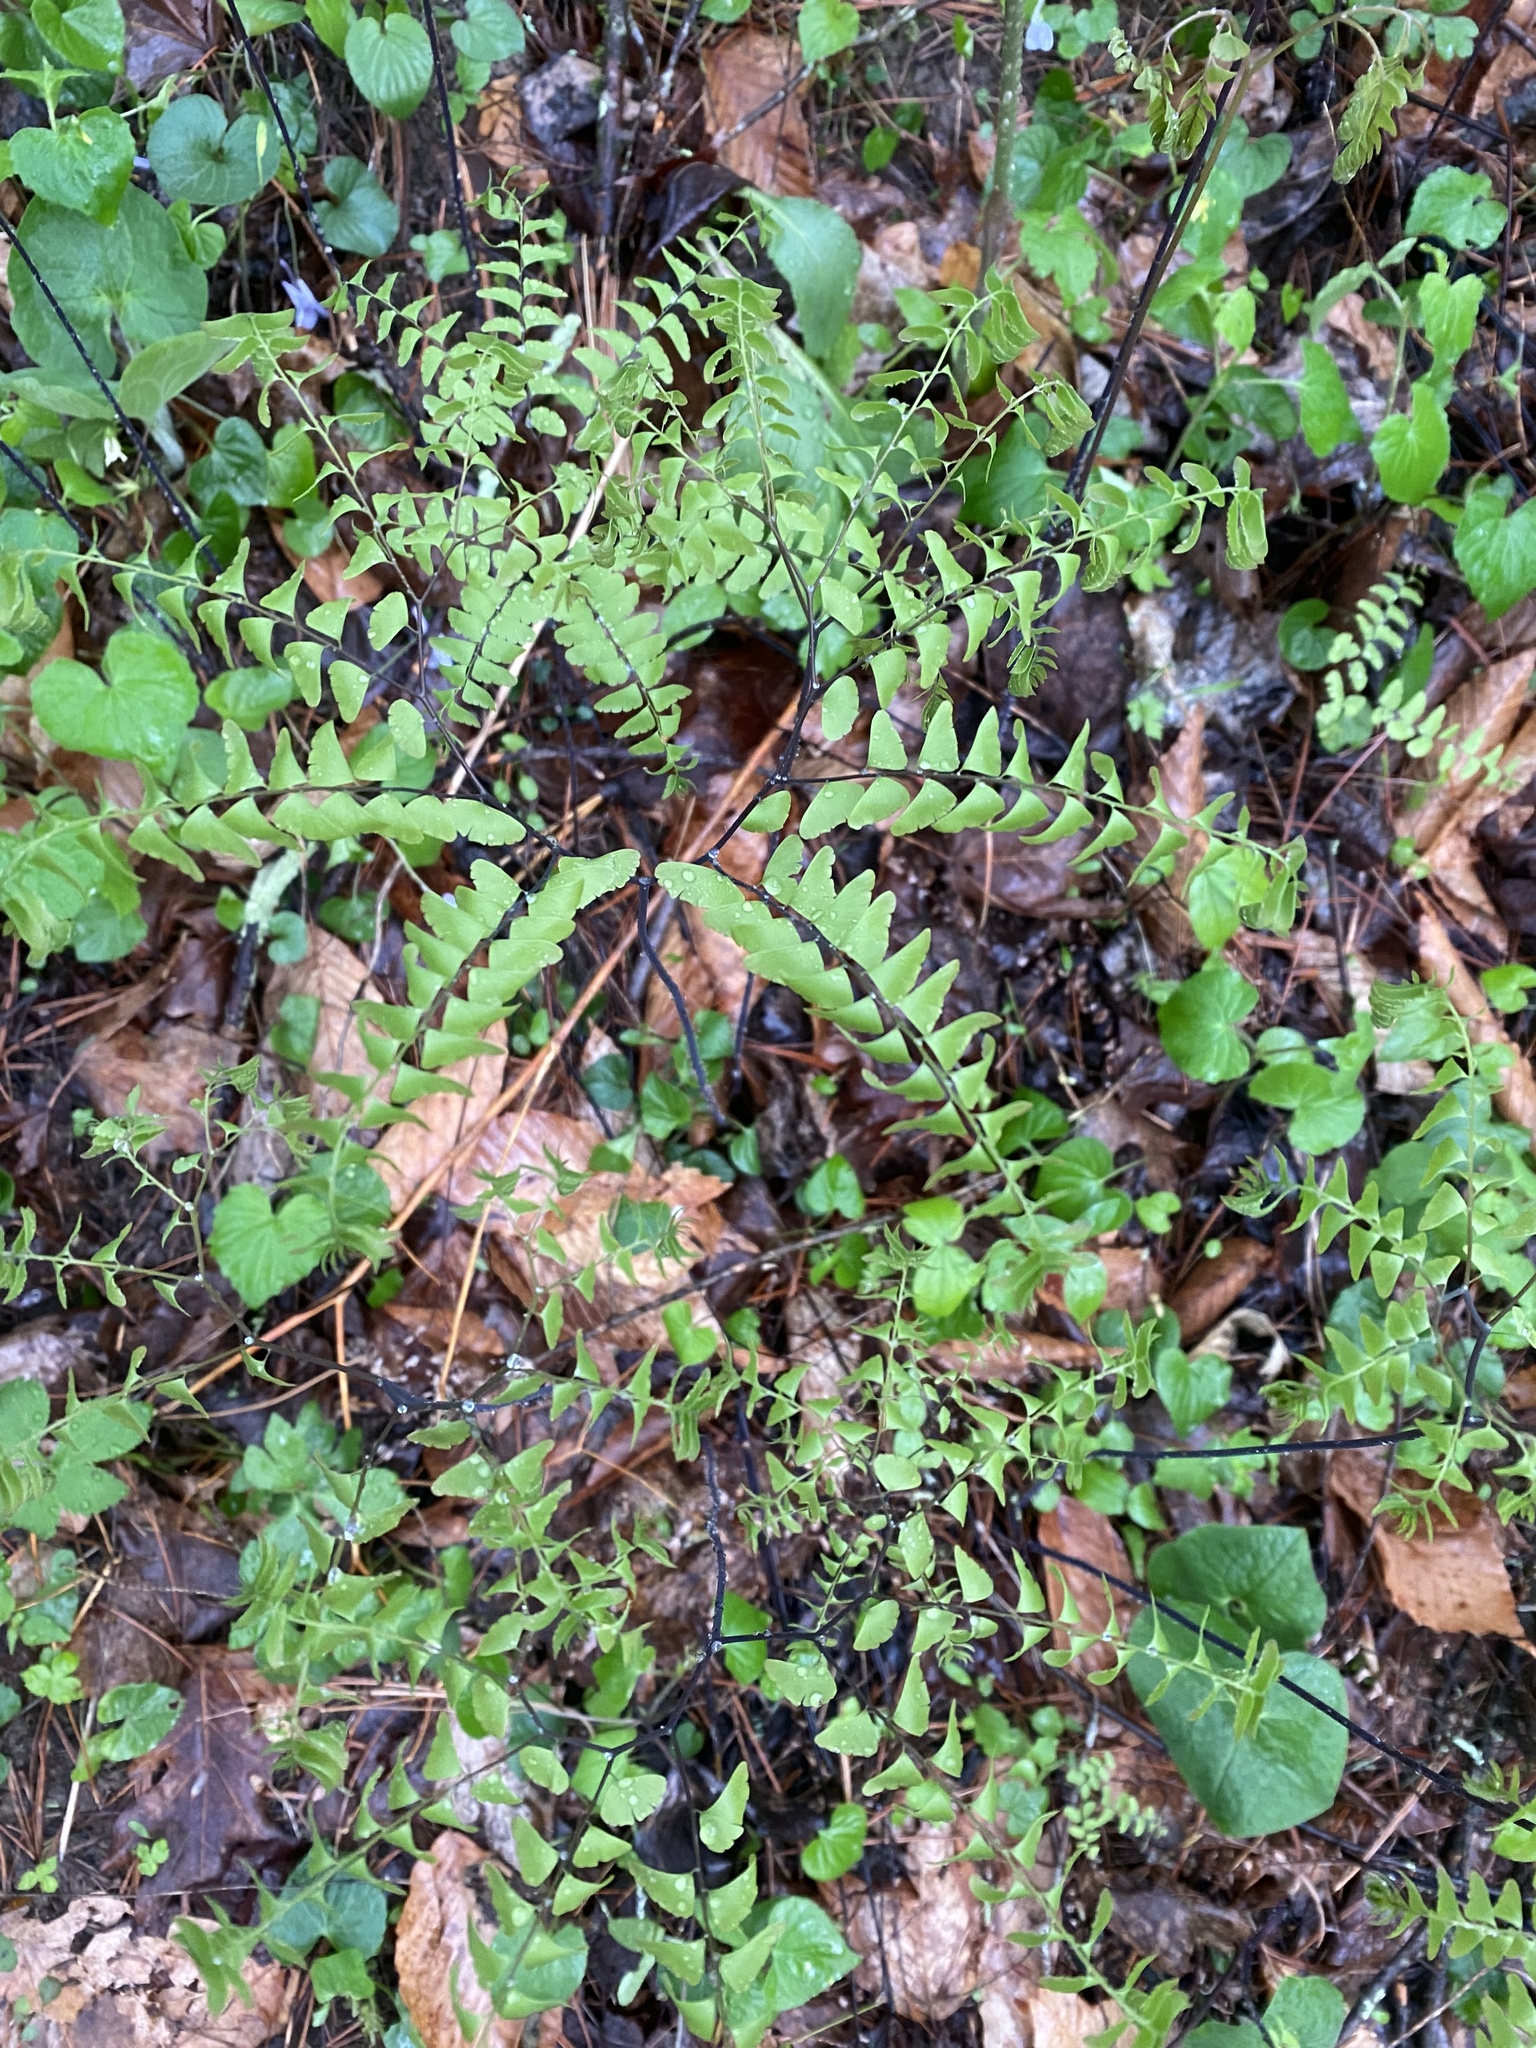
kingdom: Plantae
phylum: Tracheophyta
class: Polypodiopsida
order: Polypodiales
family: Pteridaceae
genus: Adiantum
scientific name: Adiantum pedatum
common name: Five-finger fern
